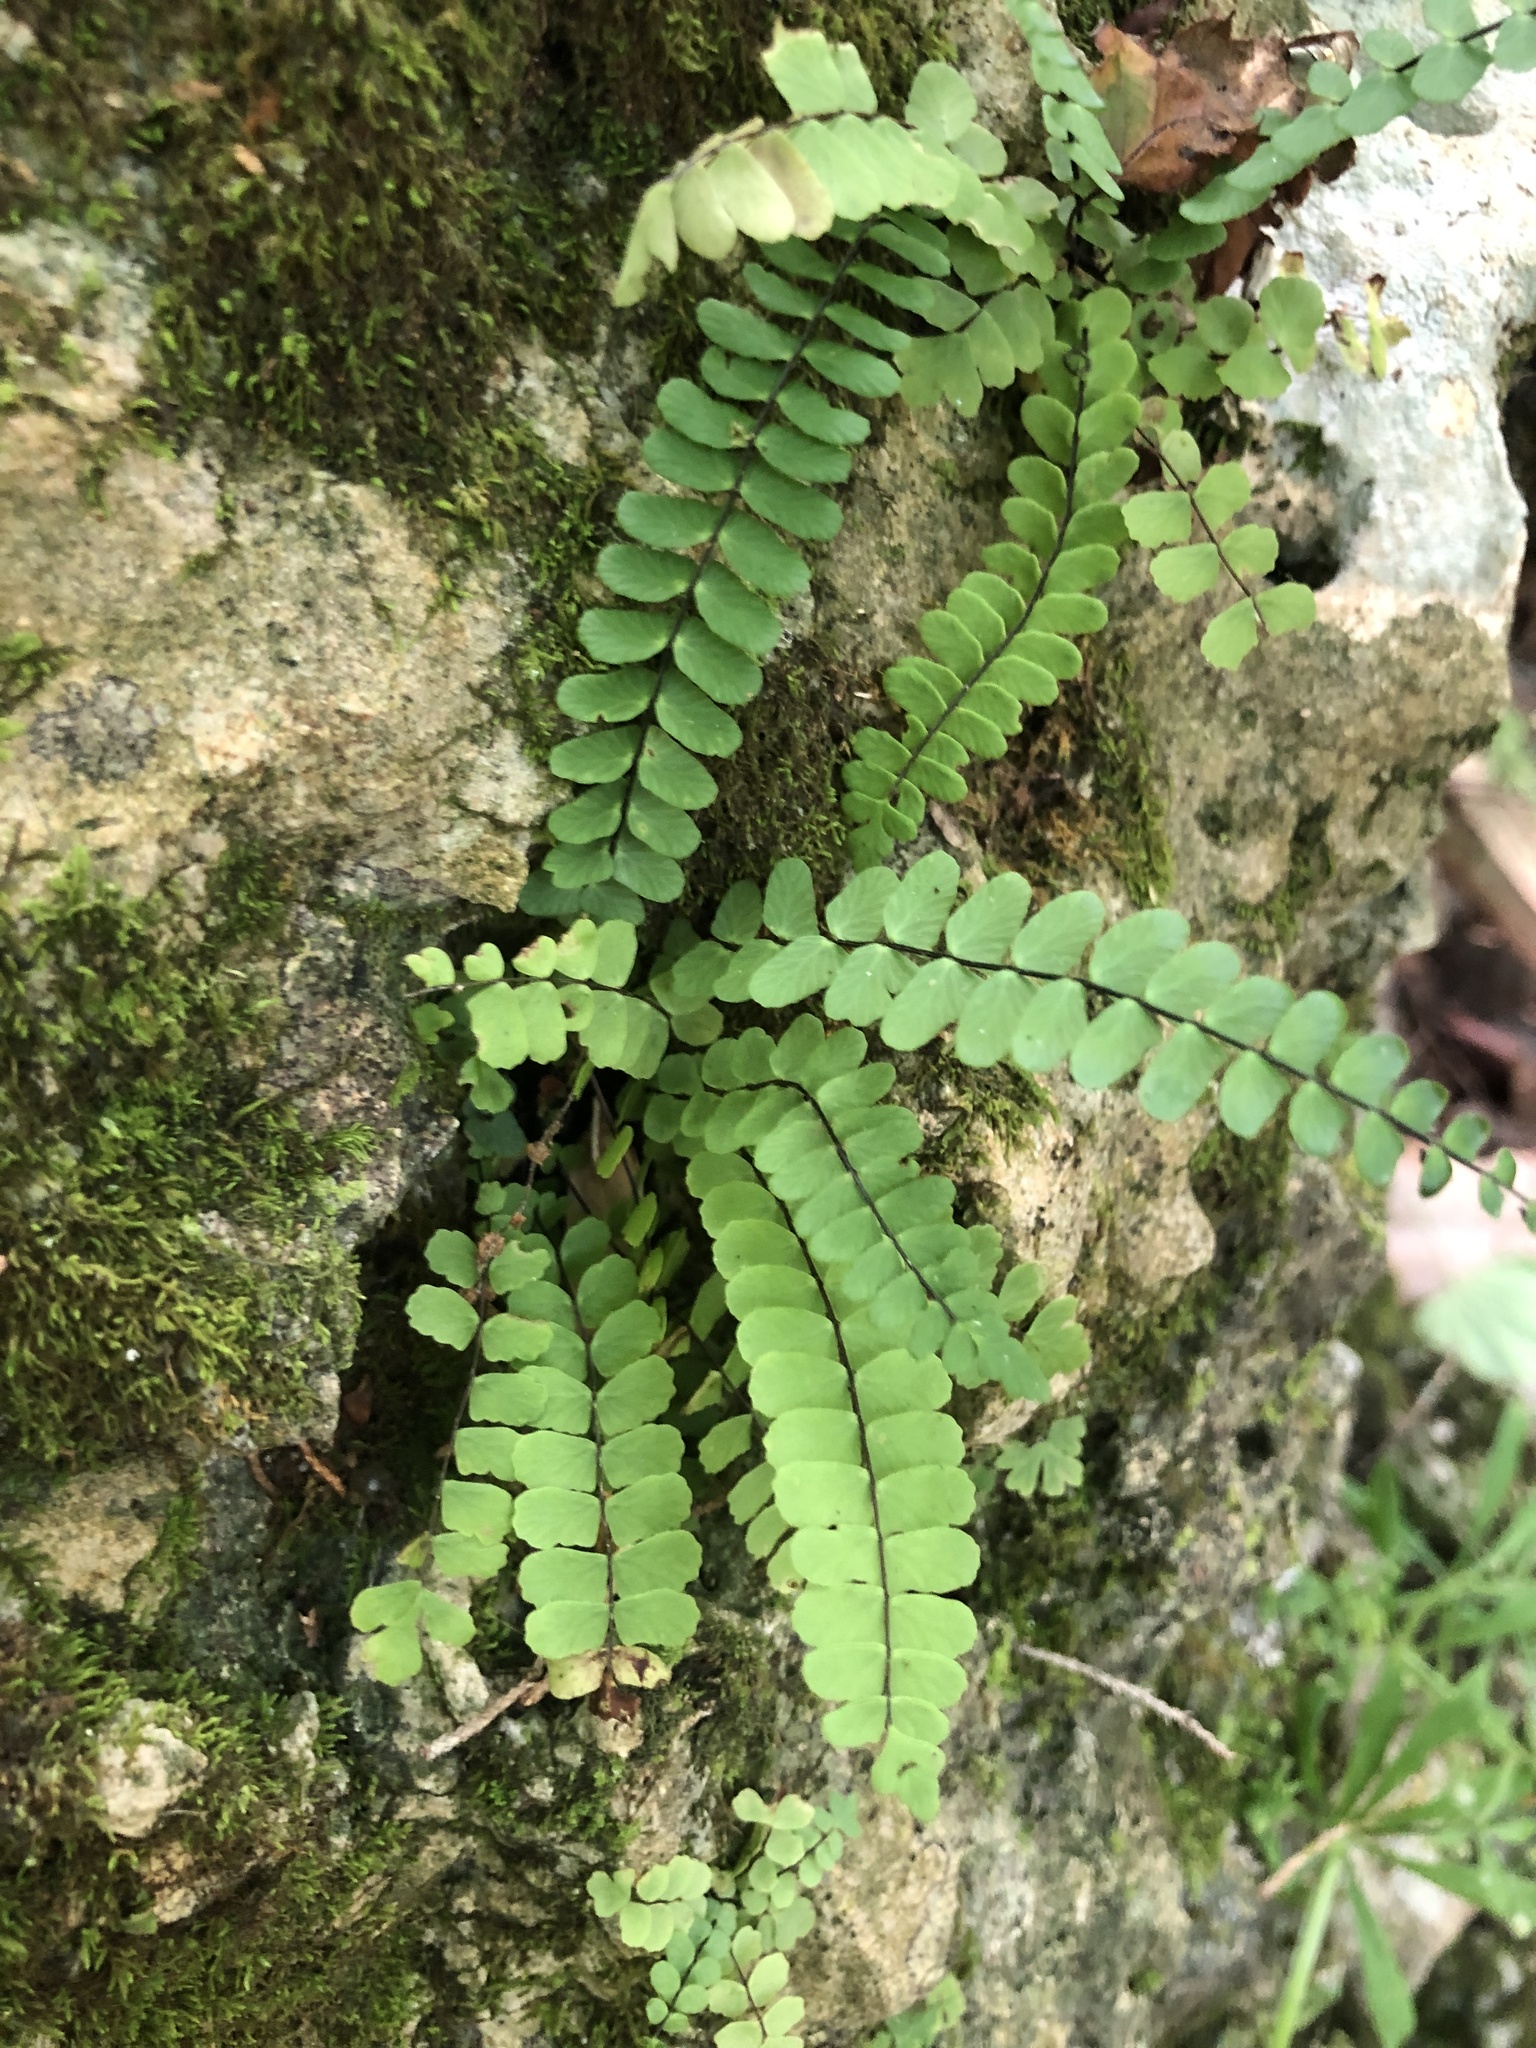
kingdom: Plantae
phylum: Tracheophyta
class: Polypodiopsida
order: Polypodiales
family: Aspleniaceae
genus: Asplenium
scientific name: Asplenium resiliens
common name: Blackstem spleenwort
